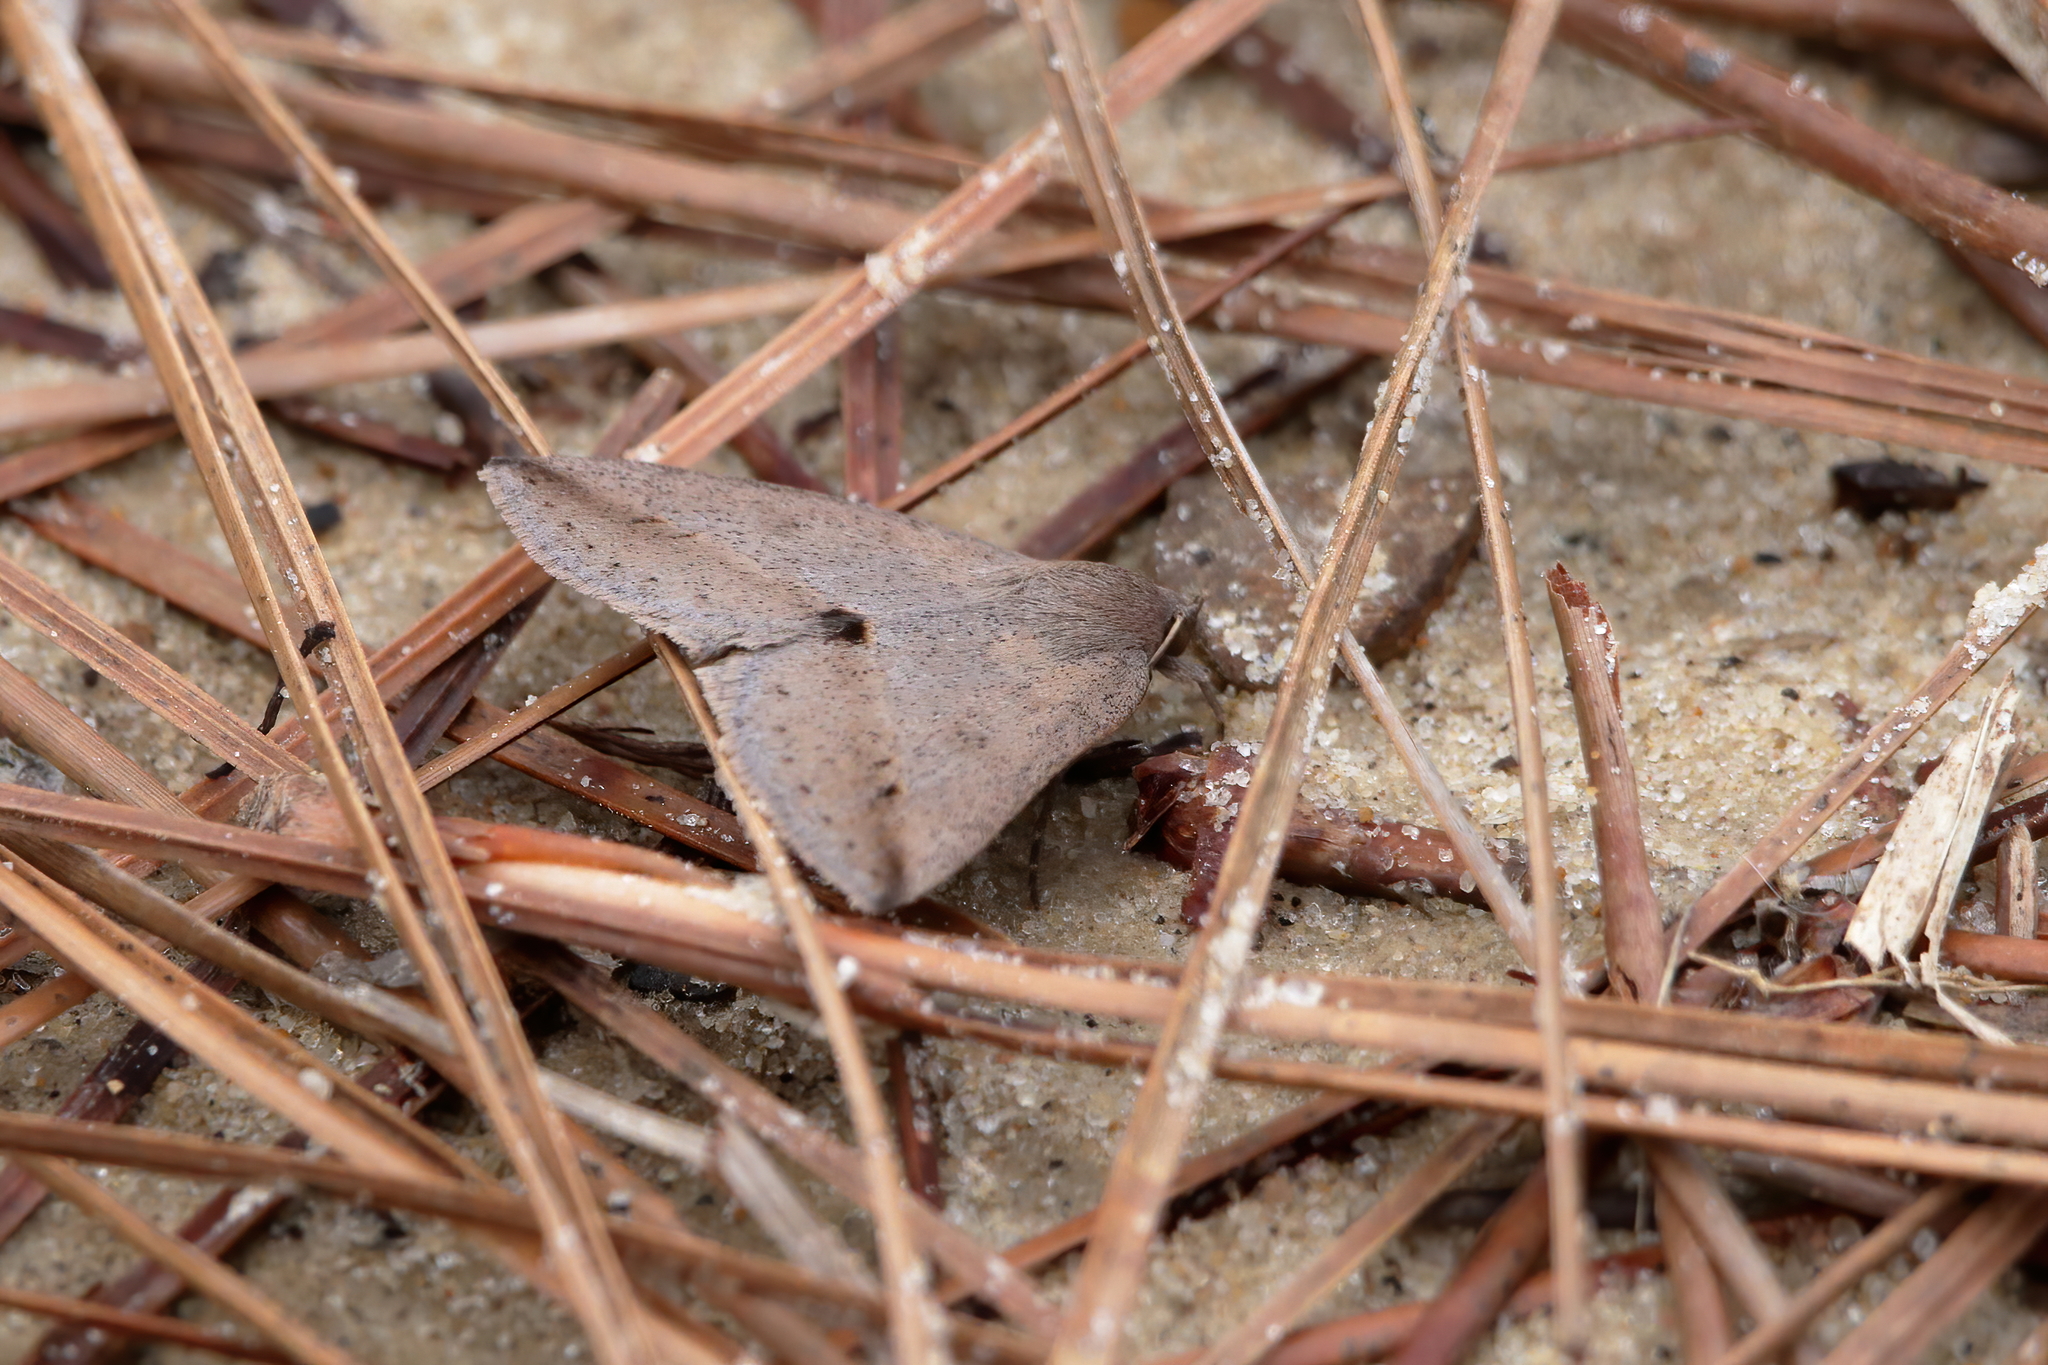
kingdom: Animalia
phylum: Arthropoda
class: Insecta
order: Lepidoptera
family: Erebidae
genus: Argyrostrotis
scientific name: Argyrostrotis flavistriaria
